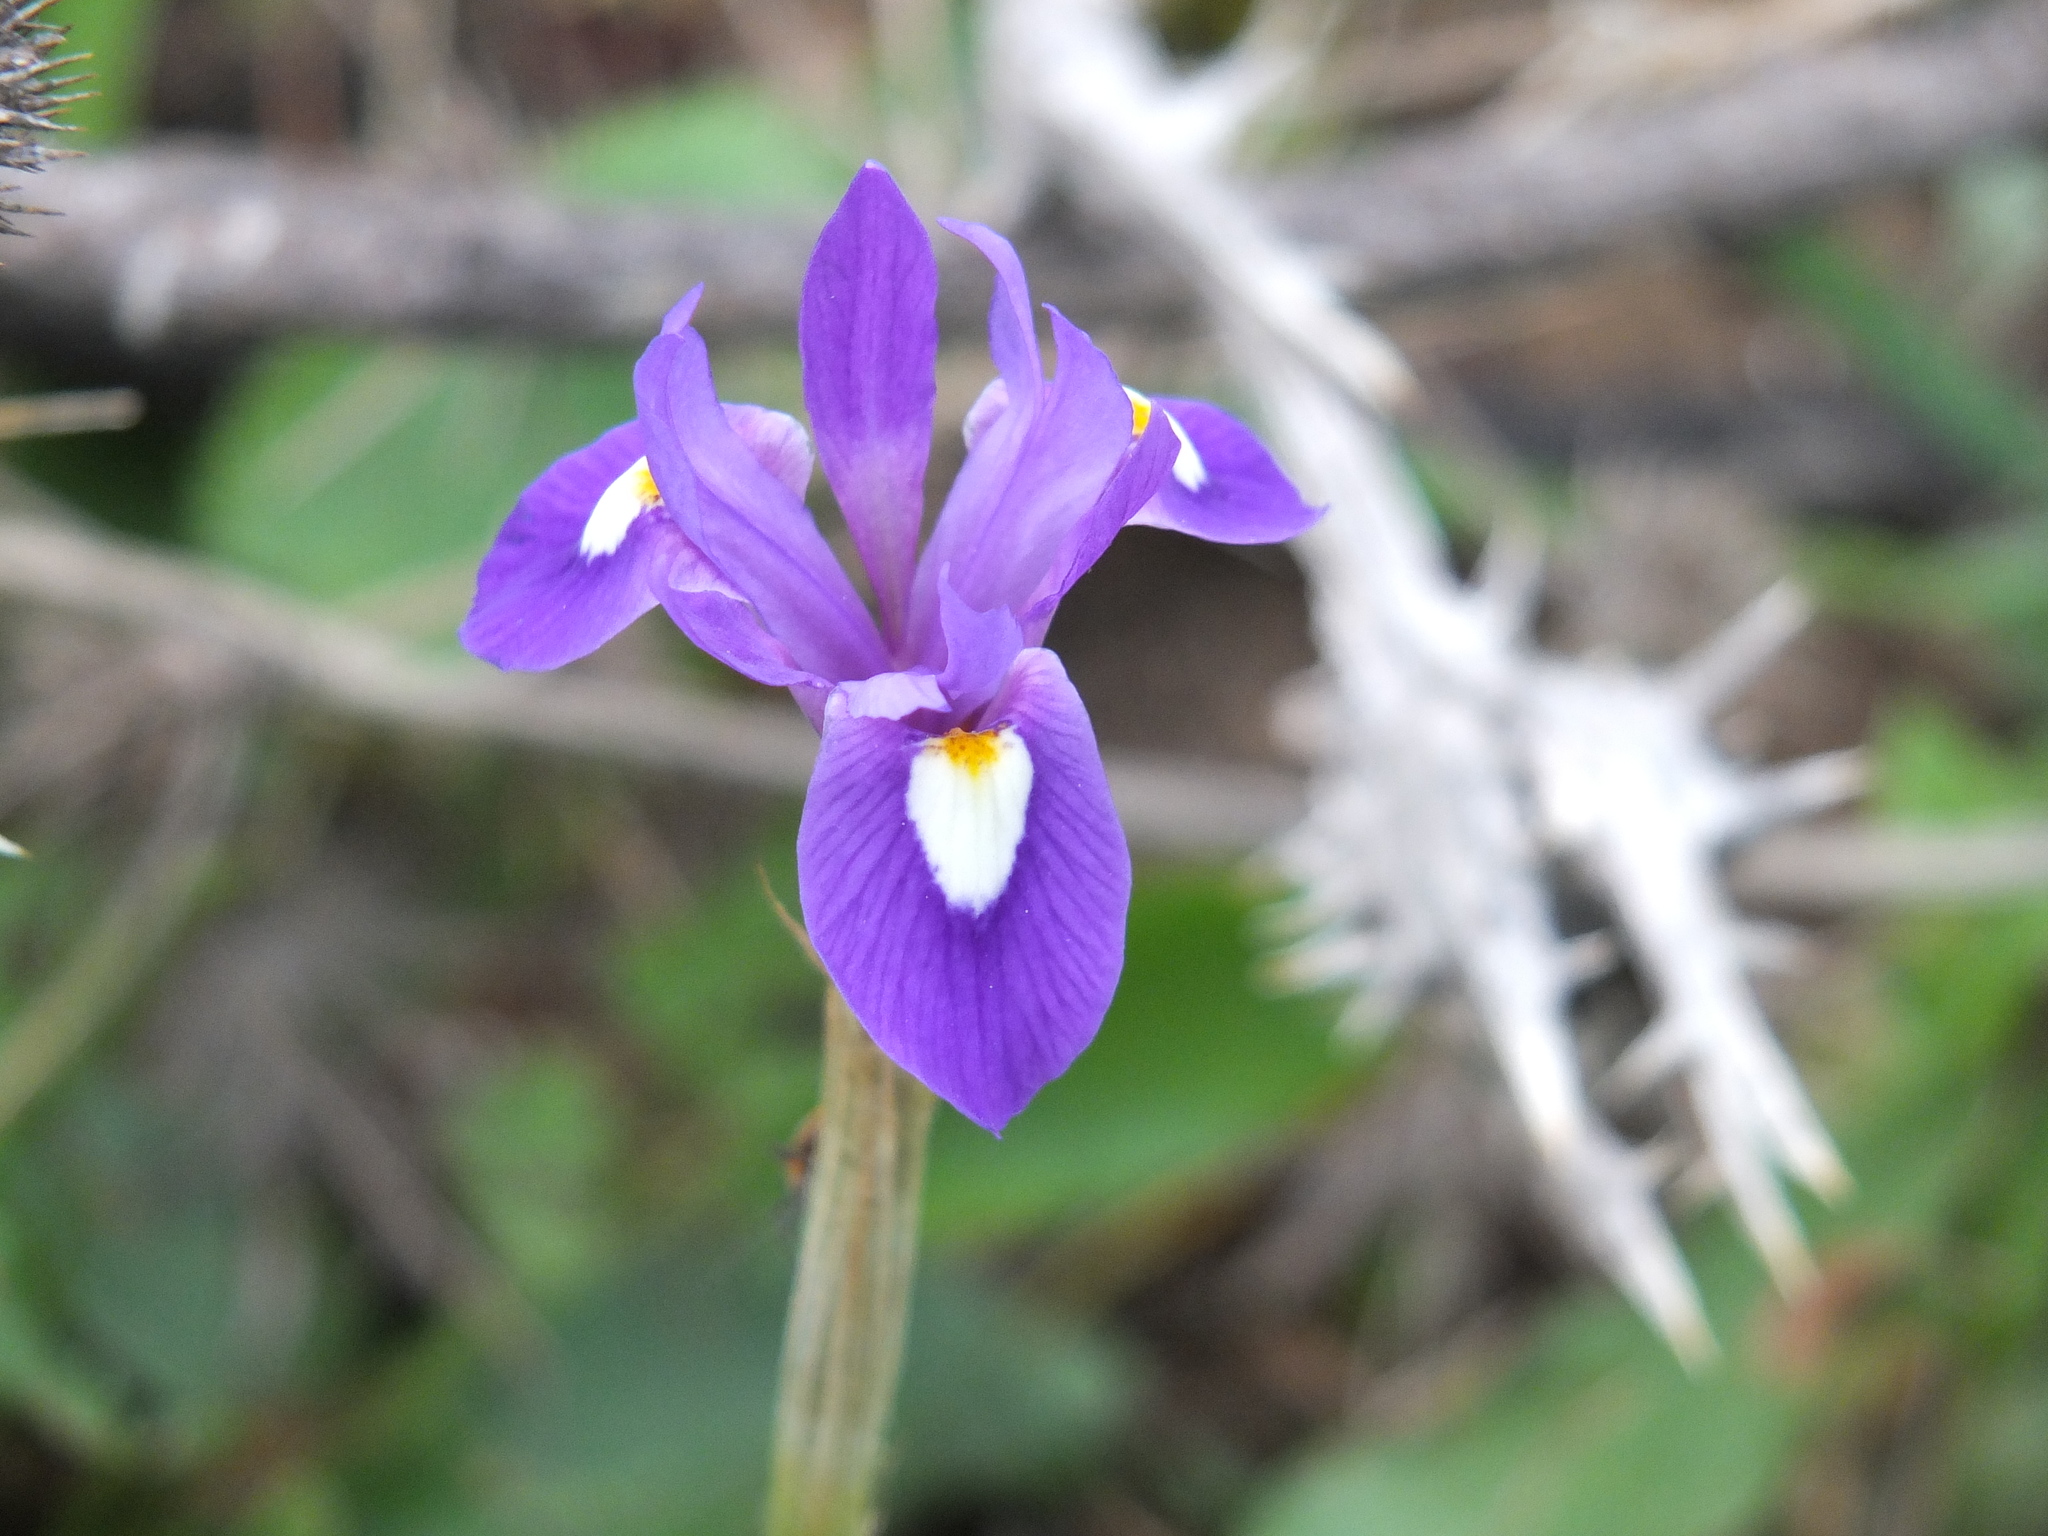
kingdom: Plantae
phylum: Tracheophyta
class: Liliopsida
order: Asparagales
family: Iridaceae
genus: Moraea
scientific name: Moraea sisyrinchium
